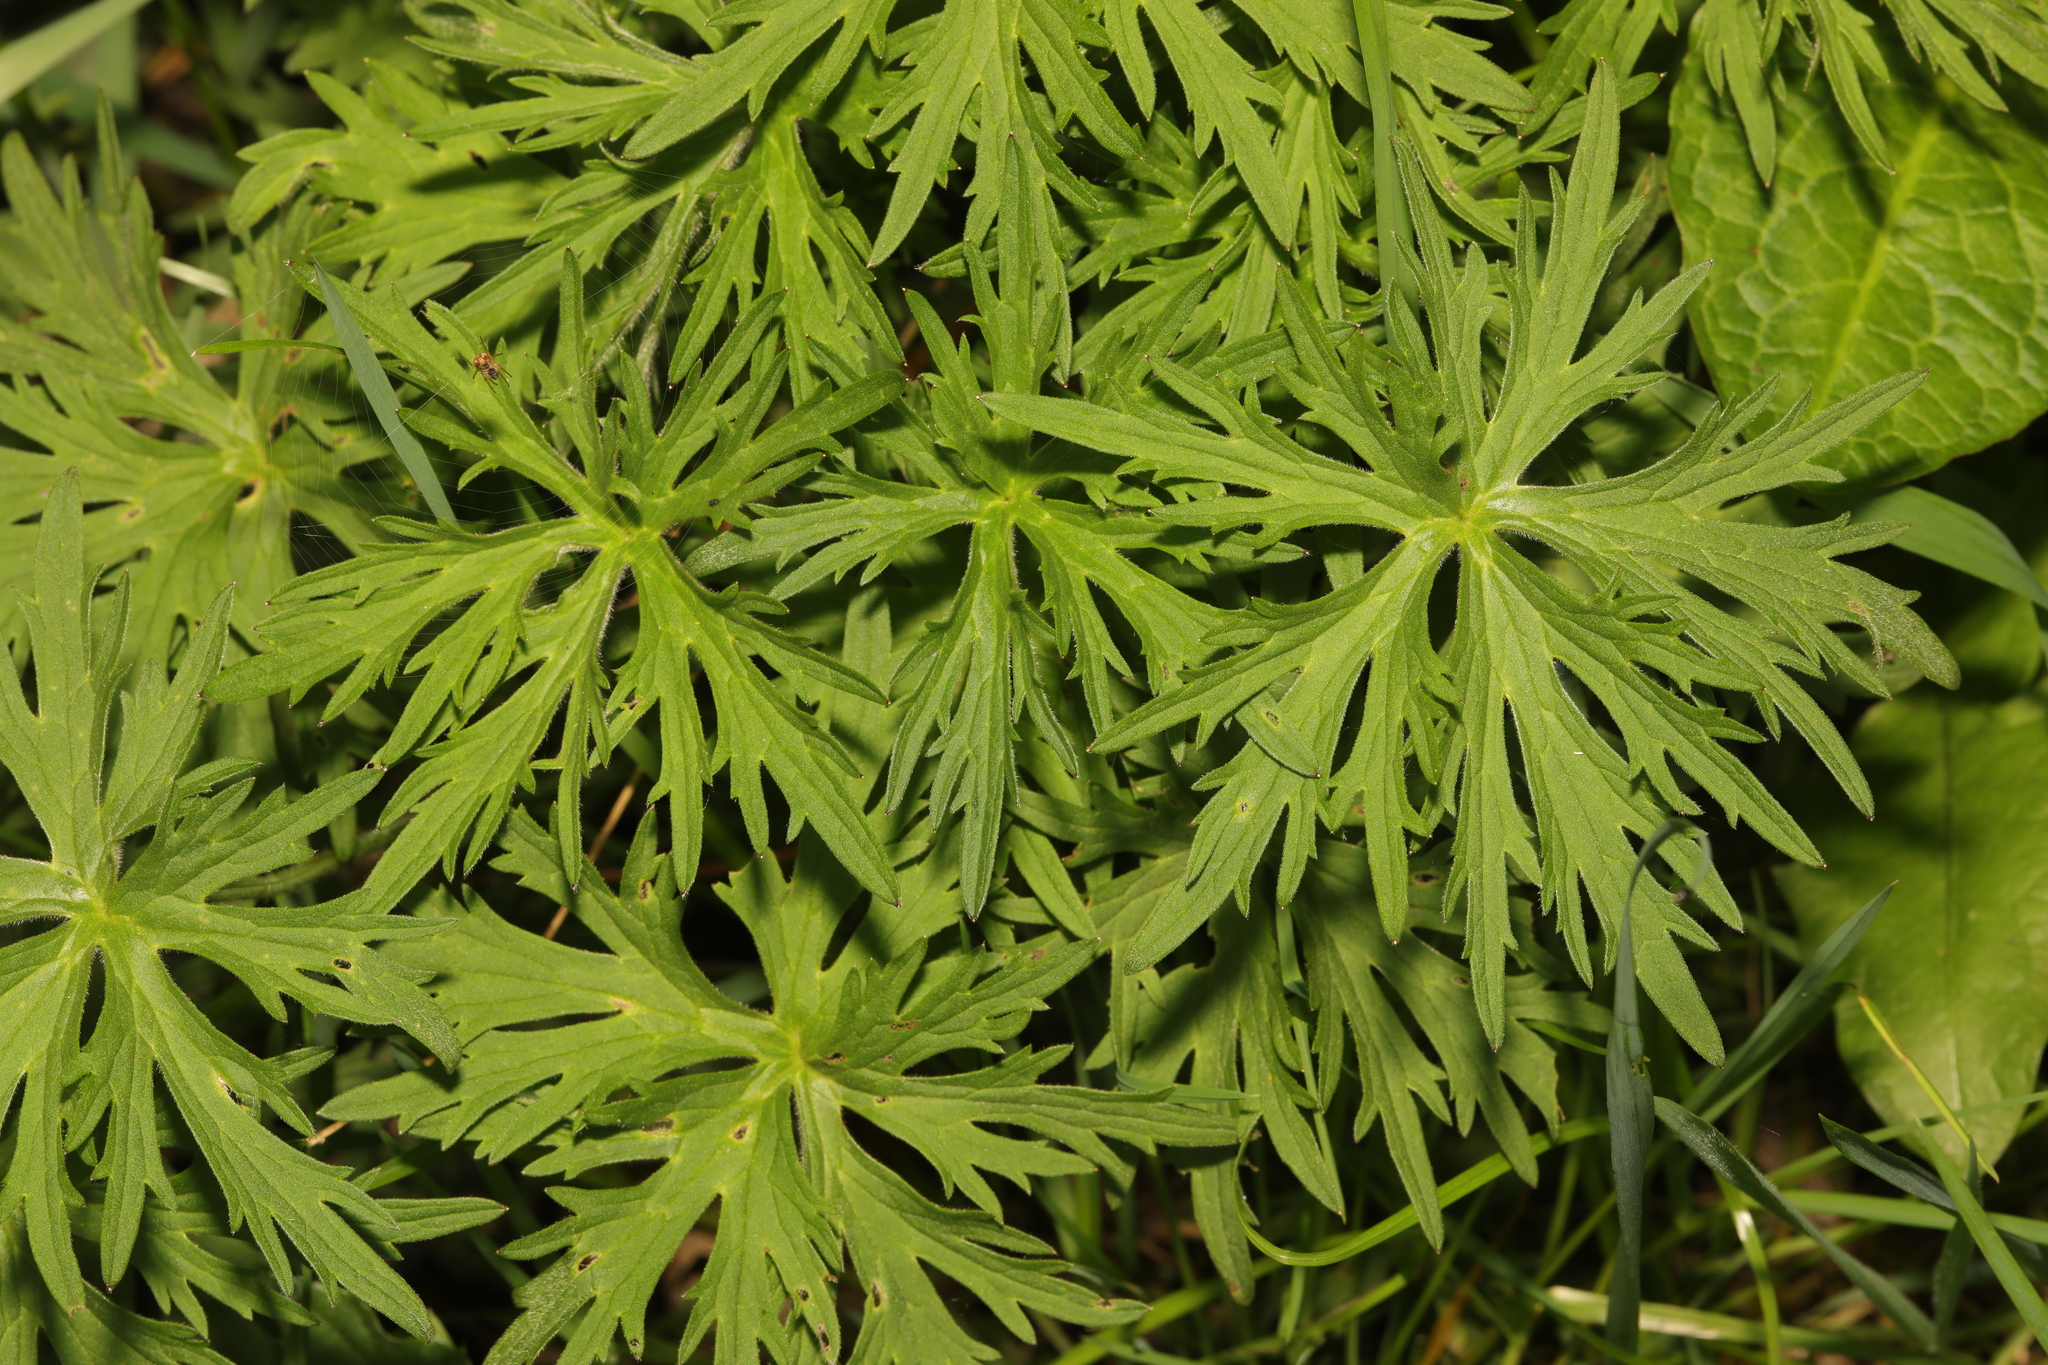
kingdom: Plantae
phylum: Tracheophyta
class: Magnoliopsida
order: Geraniales
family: Geraniaceae
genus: Geranium
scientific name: Geranium dissectum
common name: Cut-leaved crane's-bill
